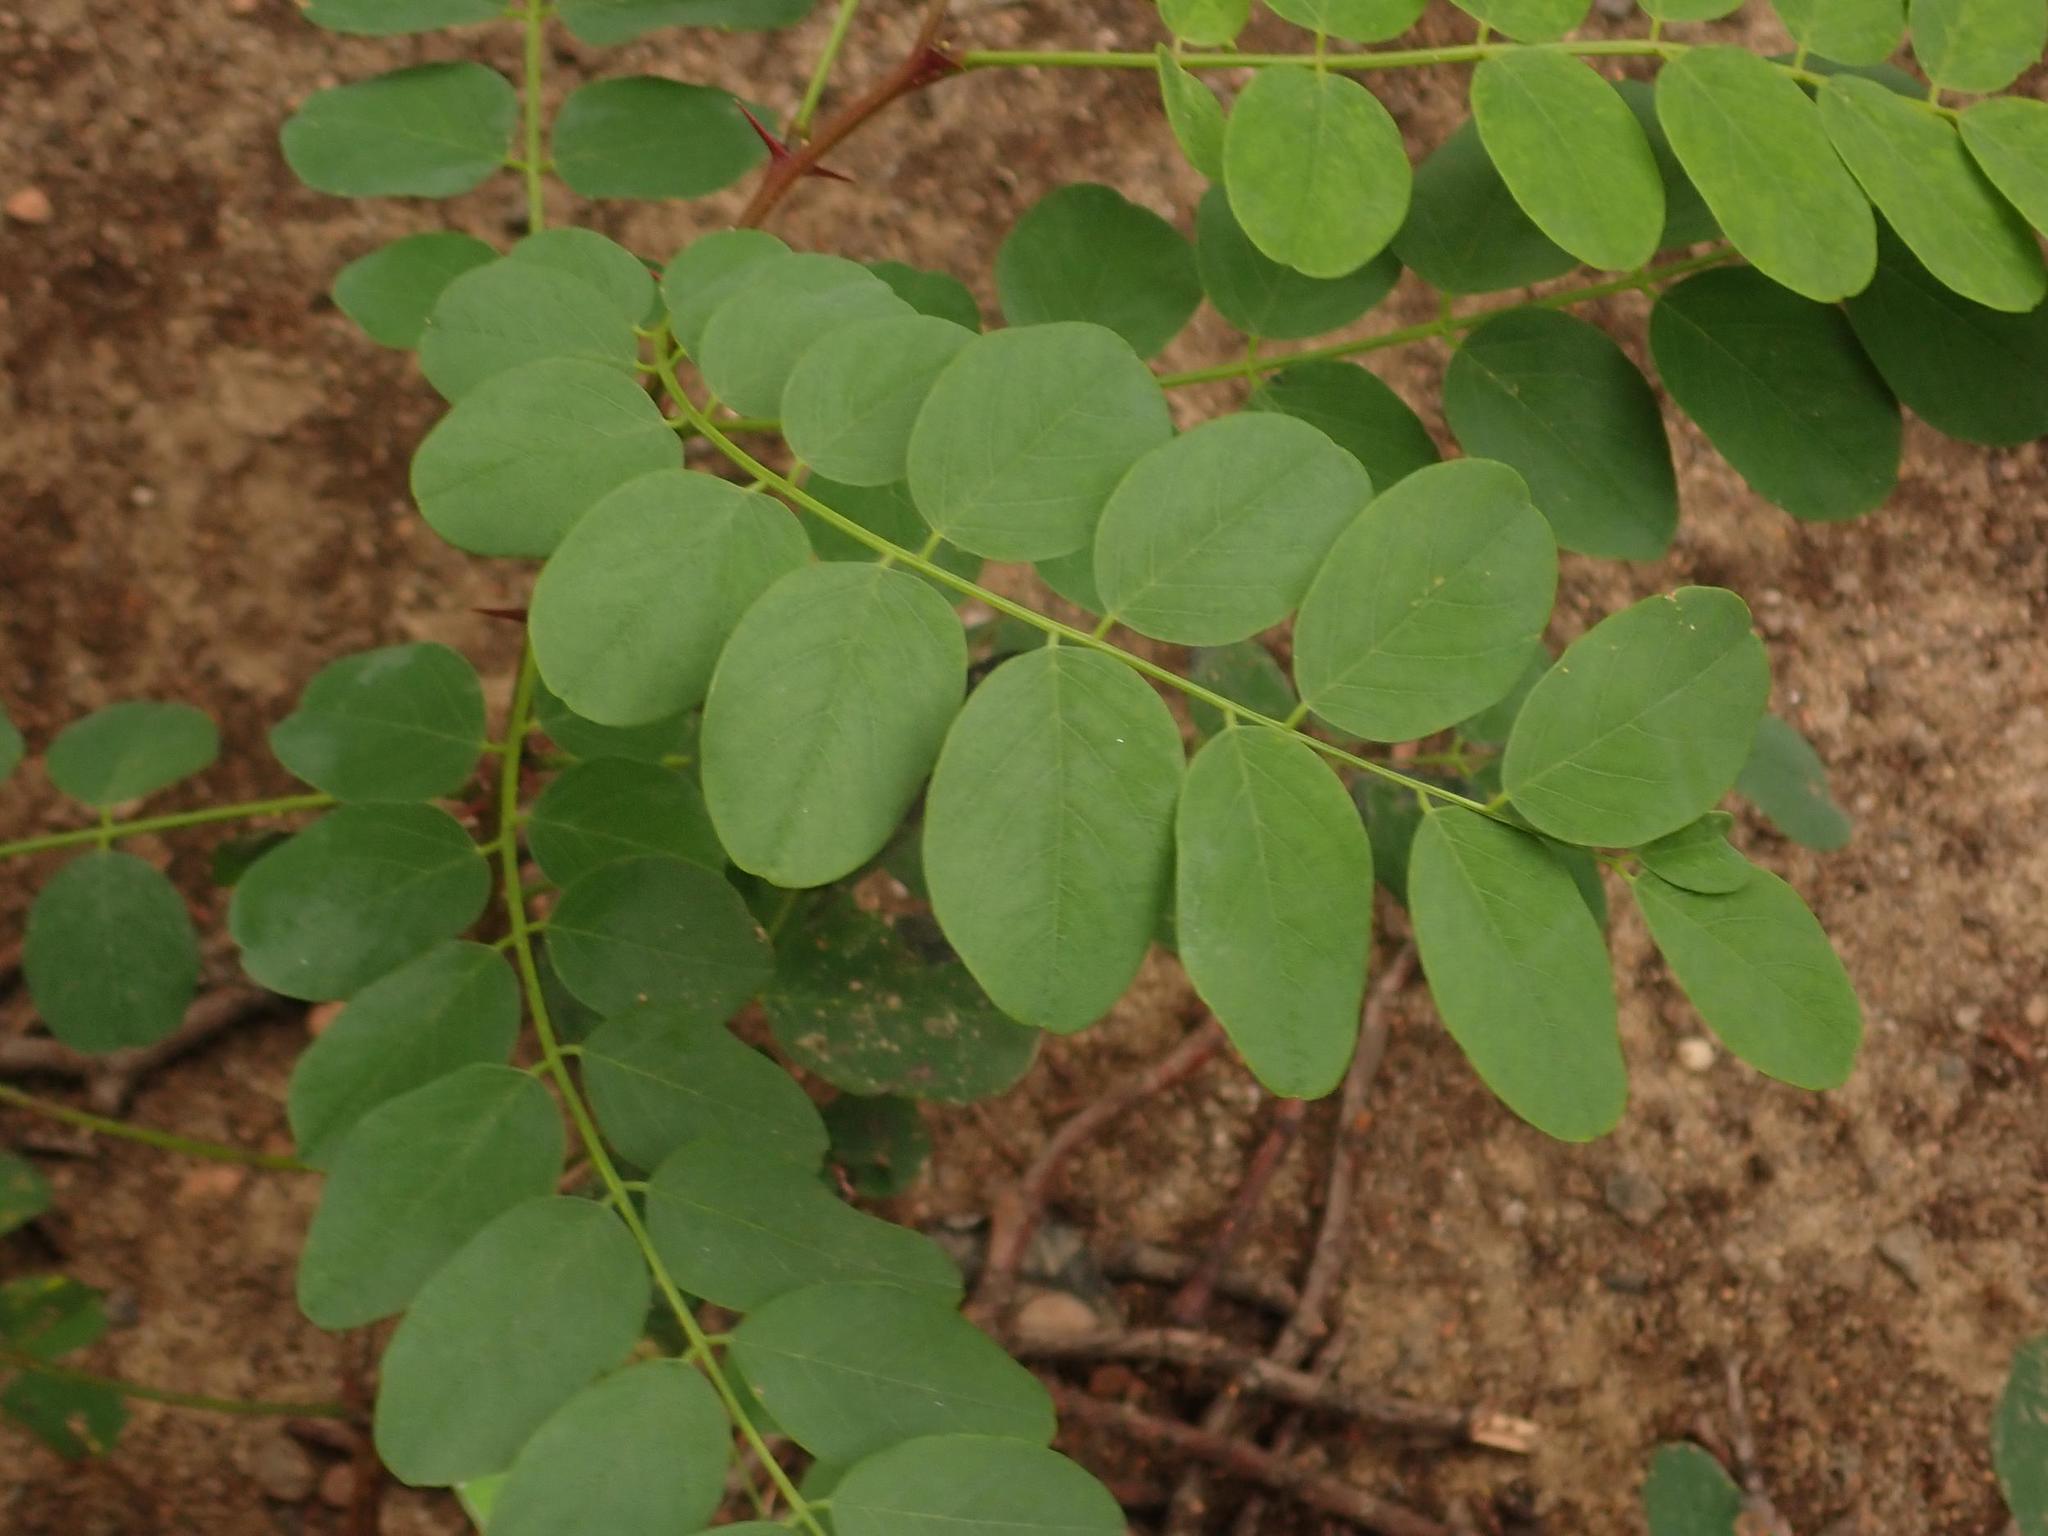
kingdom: Plantae
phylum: Tracheophyta
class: Magnoliopsida
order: Fabales
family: Fabaceae
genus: Robinia
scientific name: Robinia pseudoacacia
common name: Black locust
